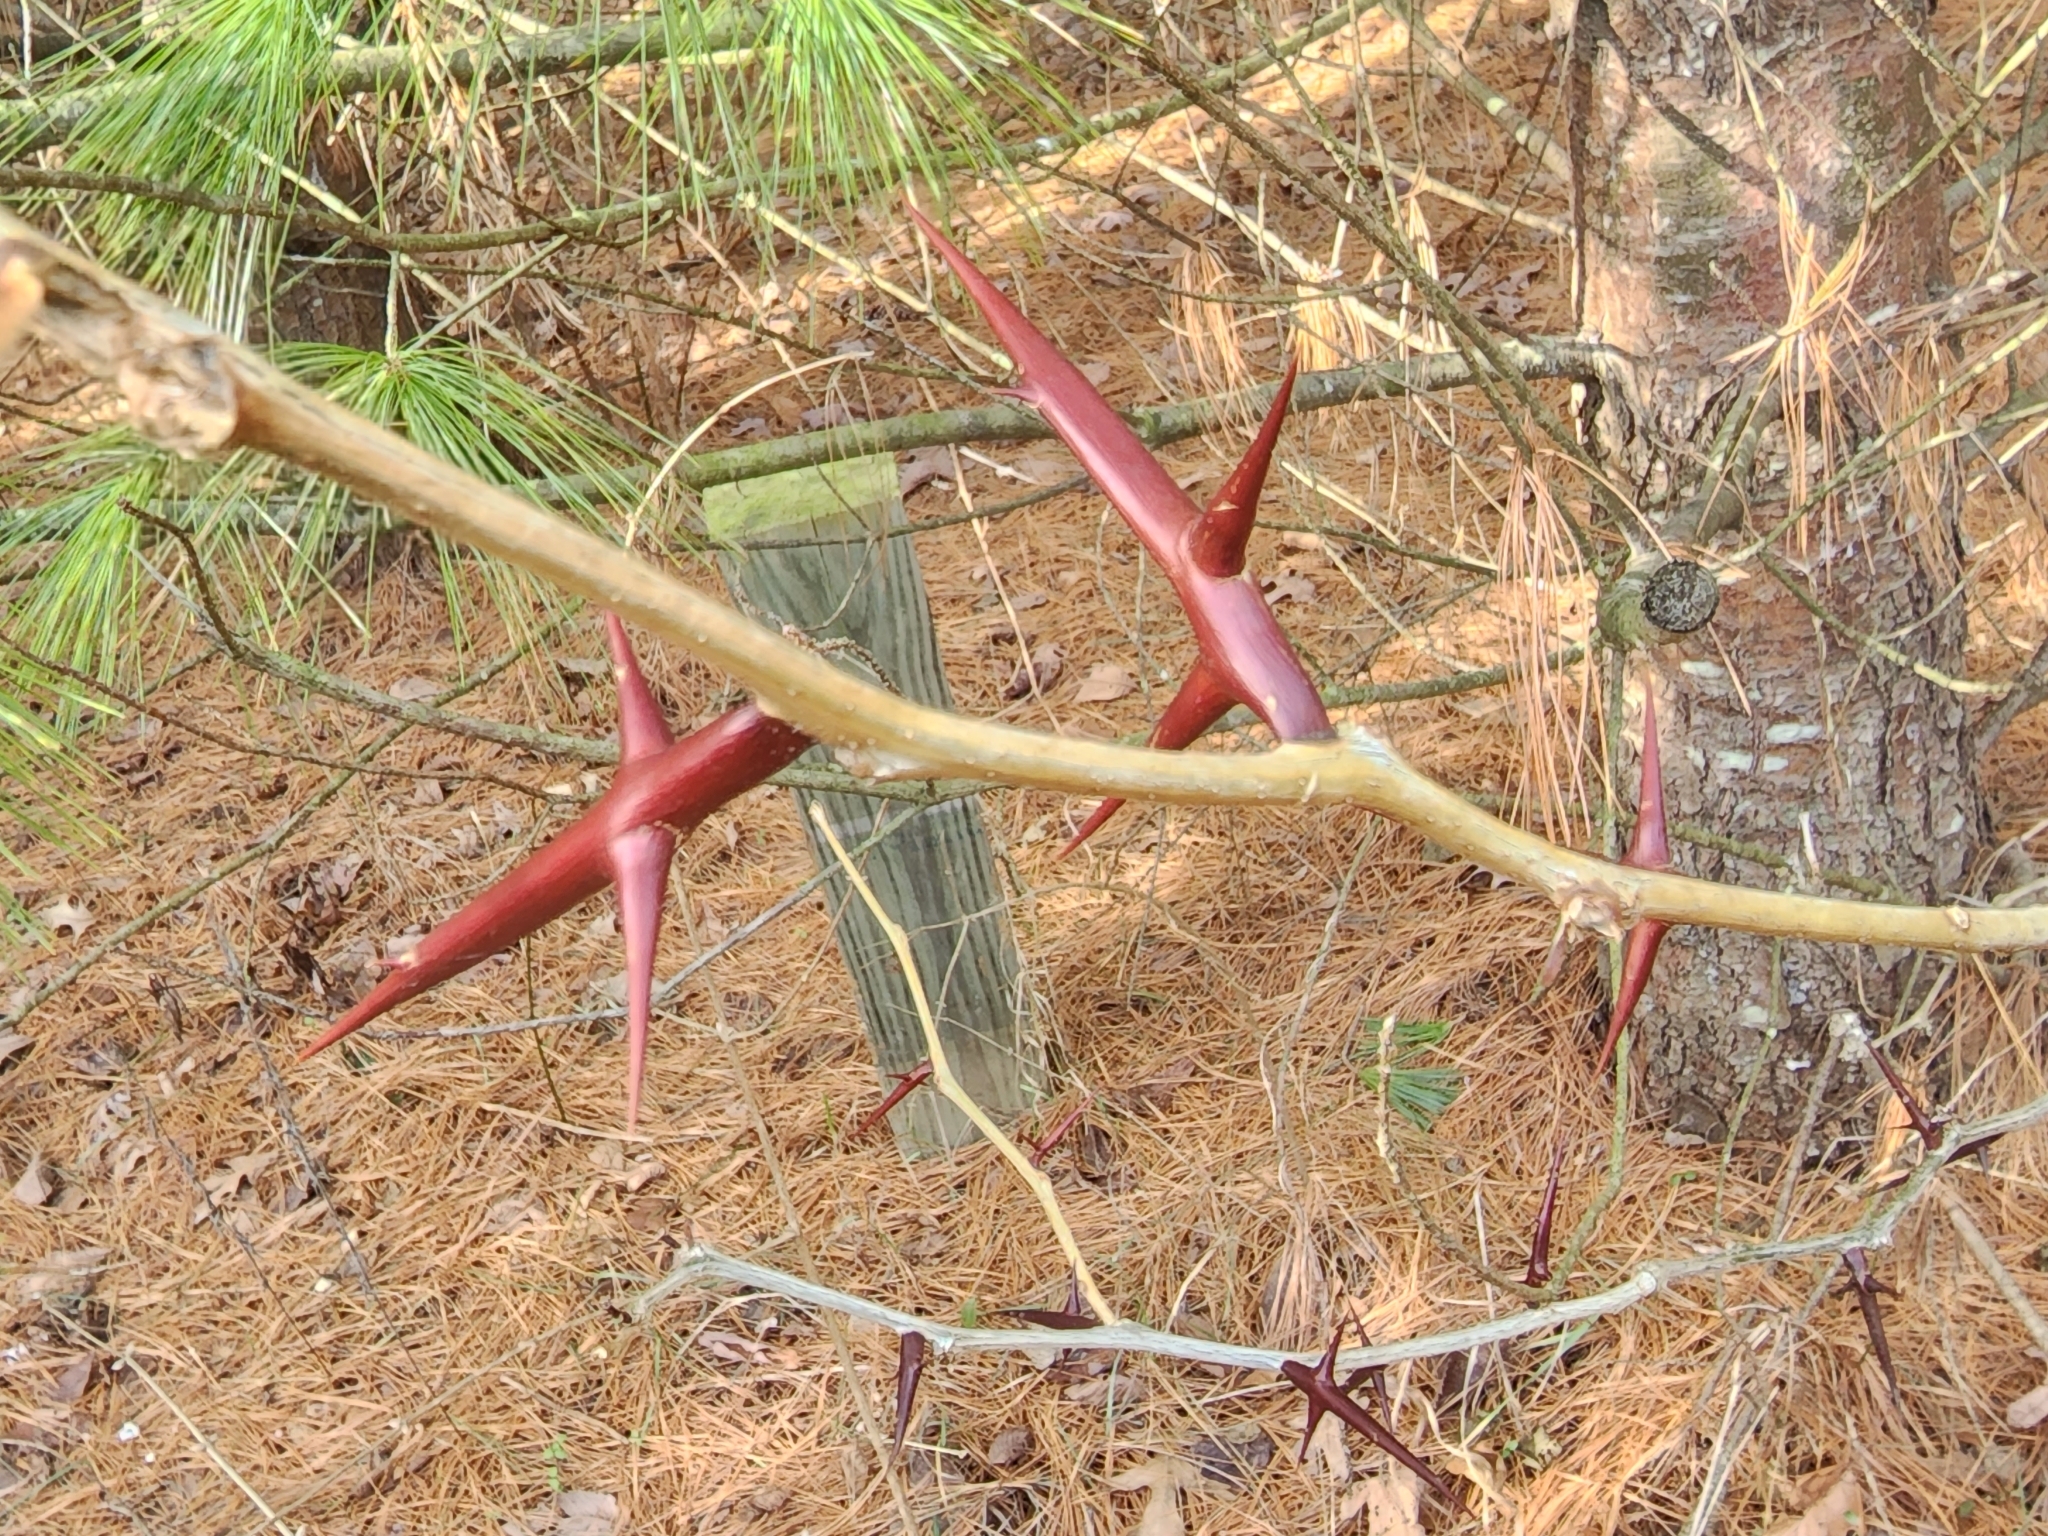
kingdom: Plantae
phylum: Tracheophyta
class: Magnoliopsida
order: Fabales
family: Fabaceae
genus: Gleditsia
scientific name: Gleditsia triacanthos
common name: Common honeylocust
